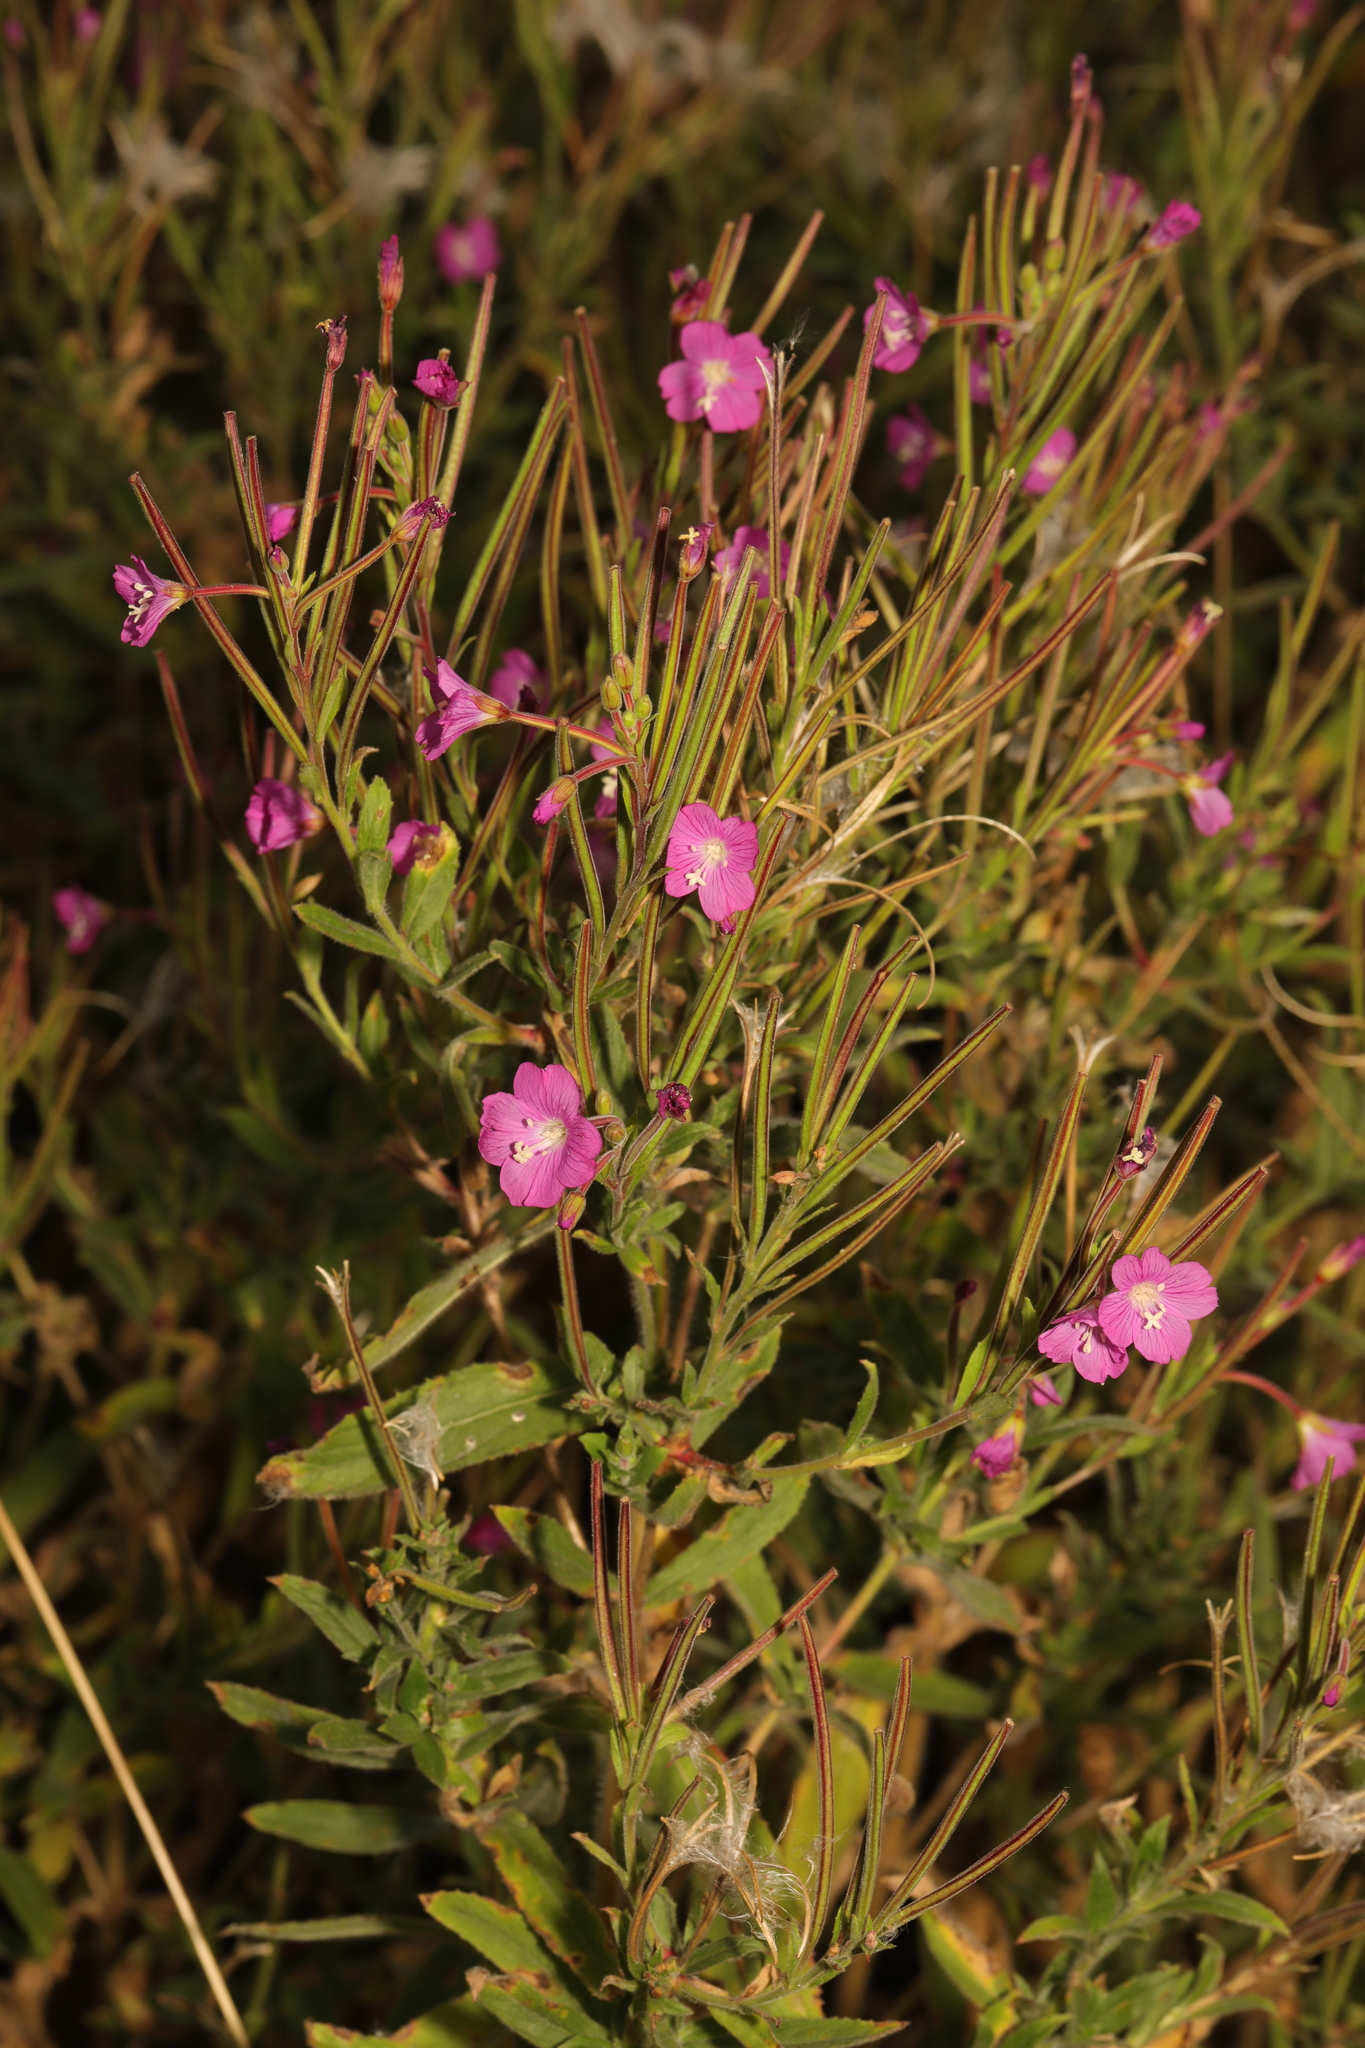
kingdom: Plantae
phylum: Tracheophyta
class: Magnoliopsida
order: Myrtales
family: Onagraceae
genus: Epilobium
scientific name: Epilobium hirsutum
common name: Great willowherb
